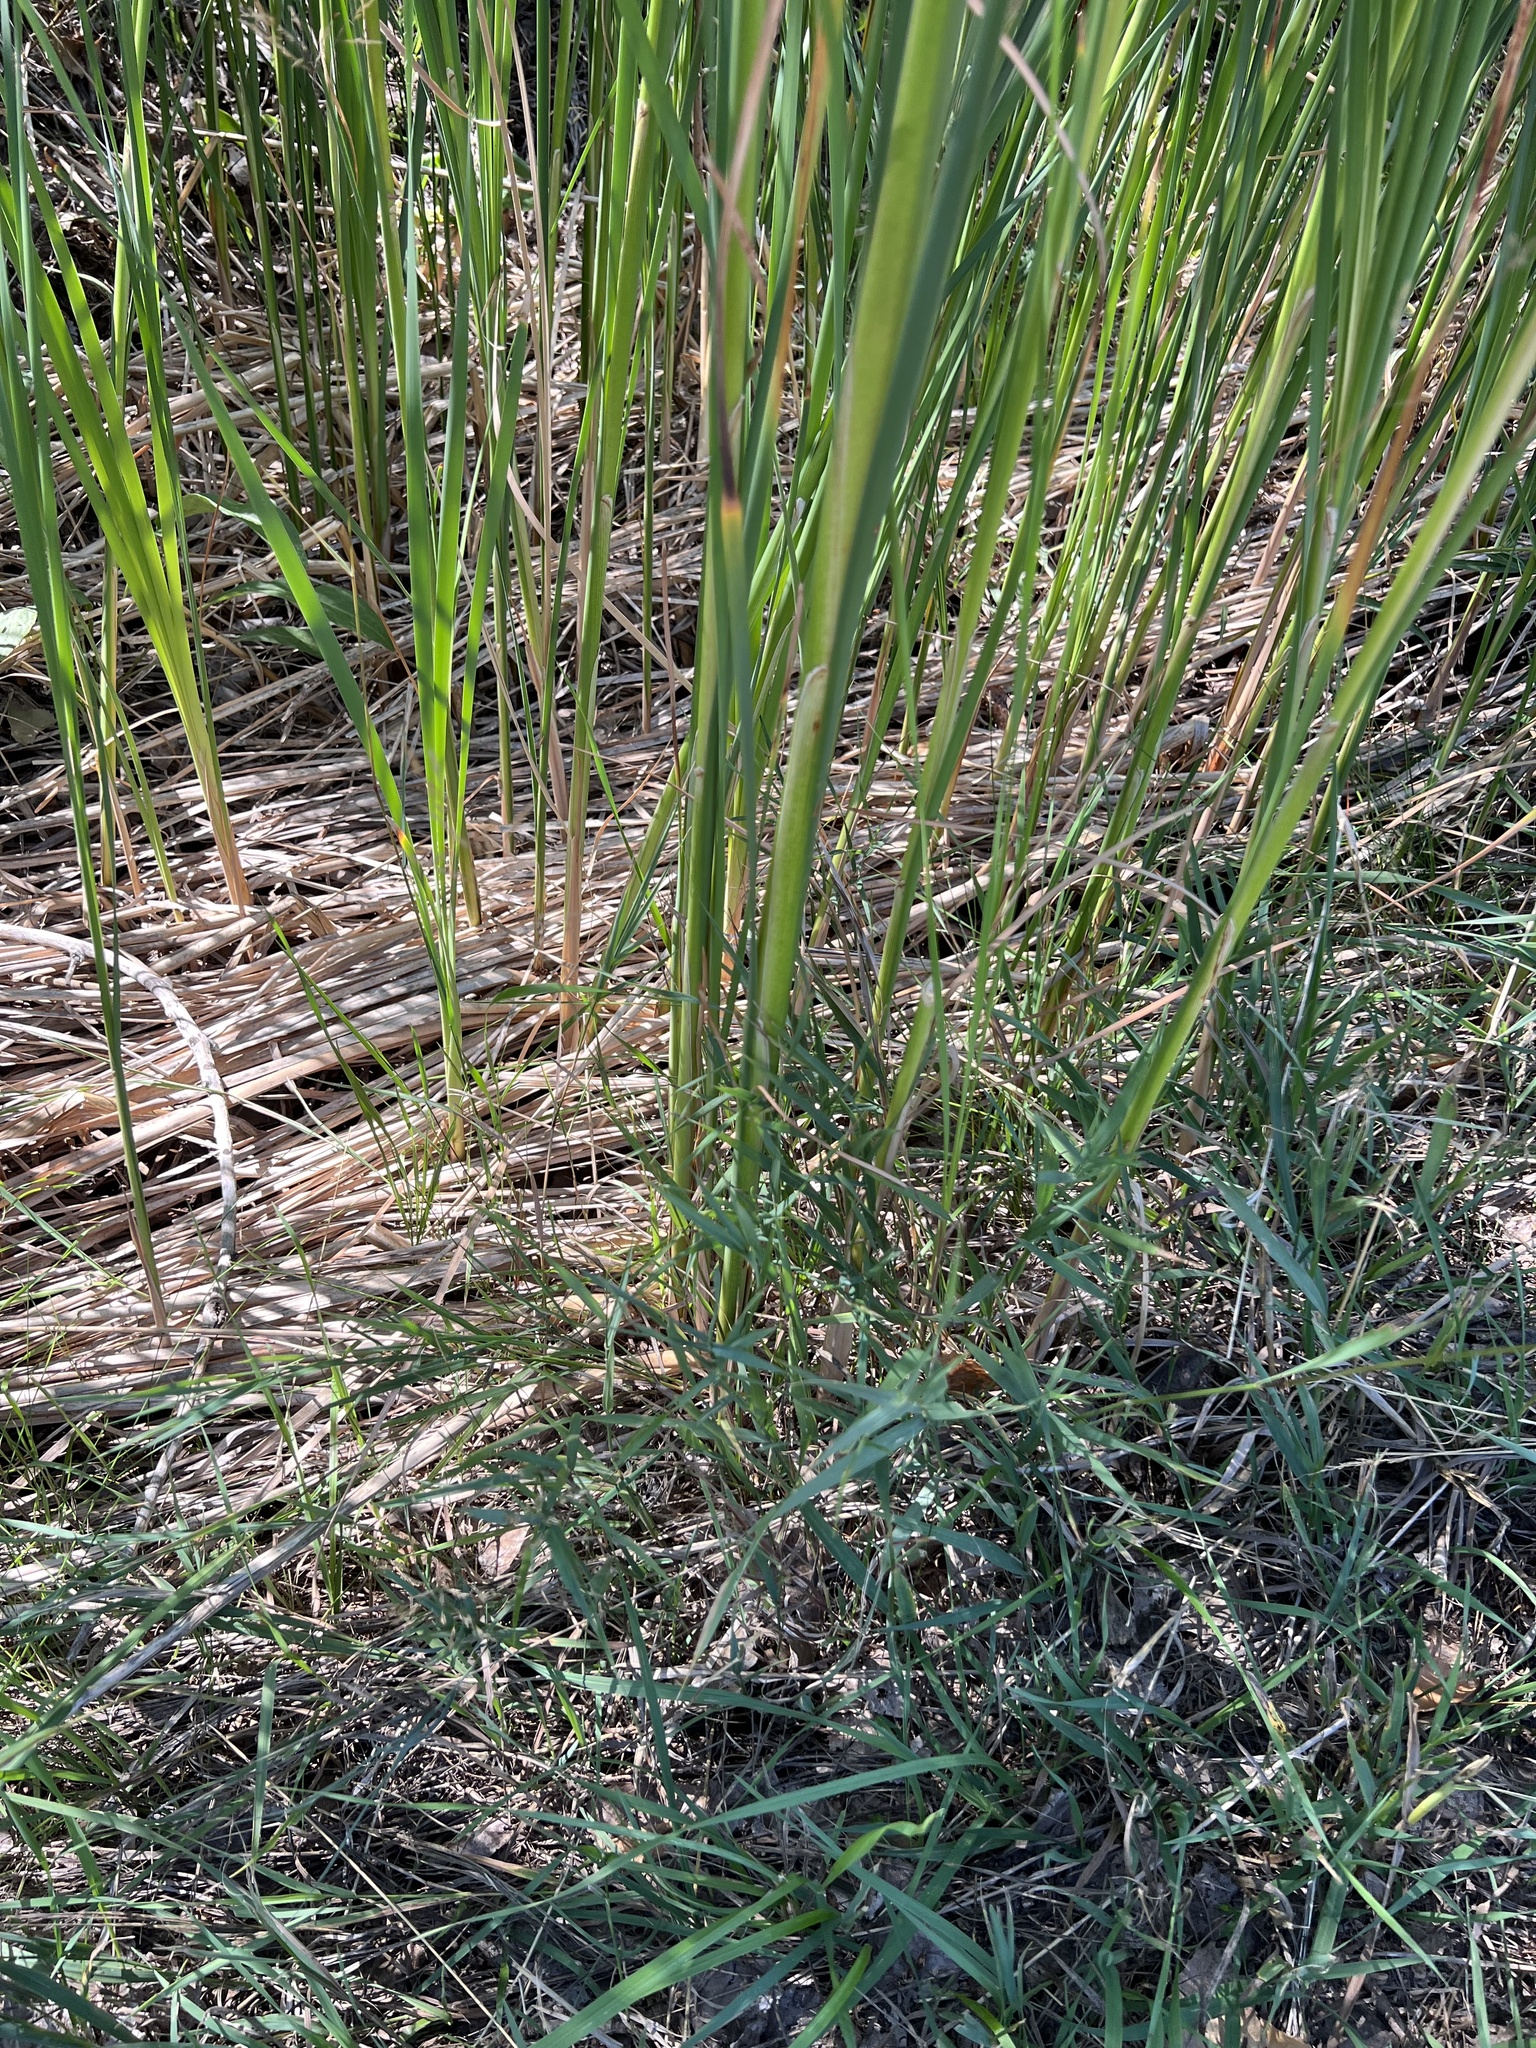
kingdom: Plantae
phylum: Tracheophyta
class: Liliopsida
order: Poales
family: Typhaceae
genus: Typha
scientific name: Typha angustifolia
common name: Lesser bulrush
